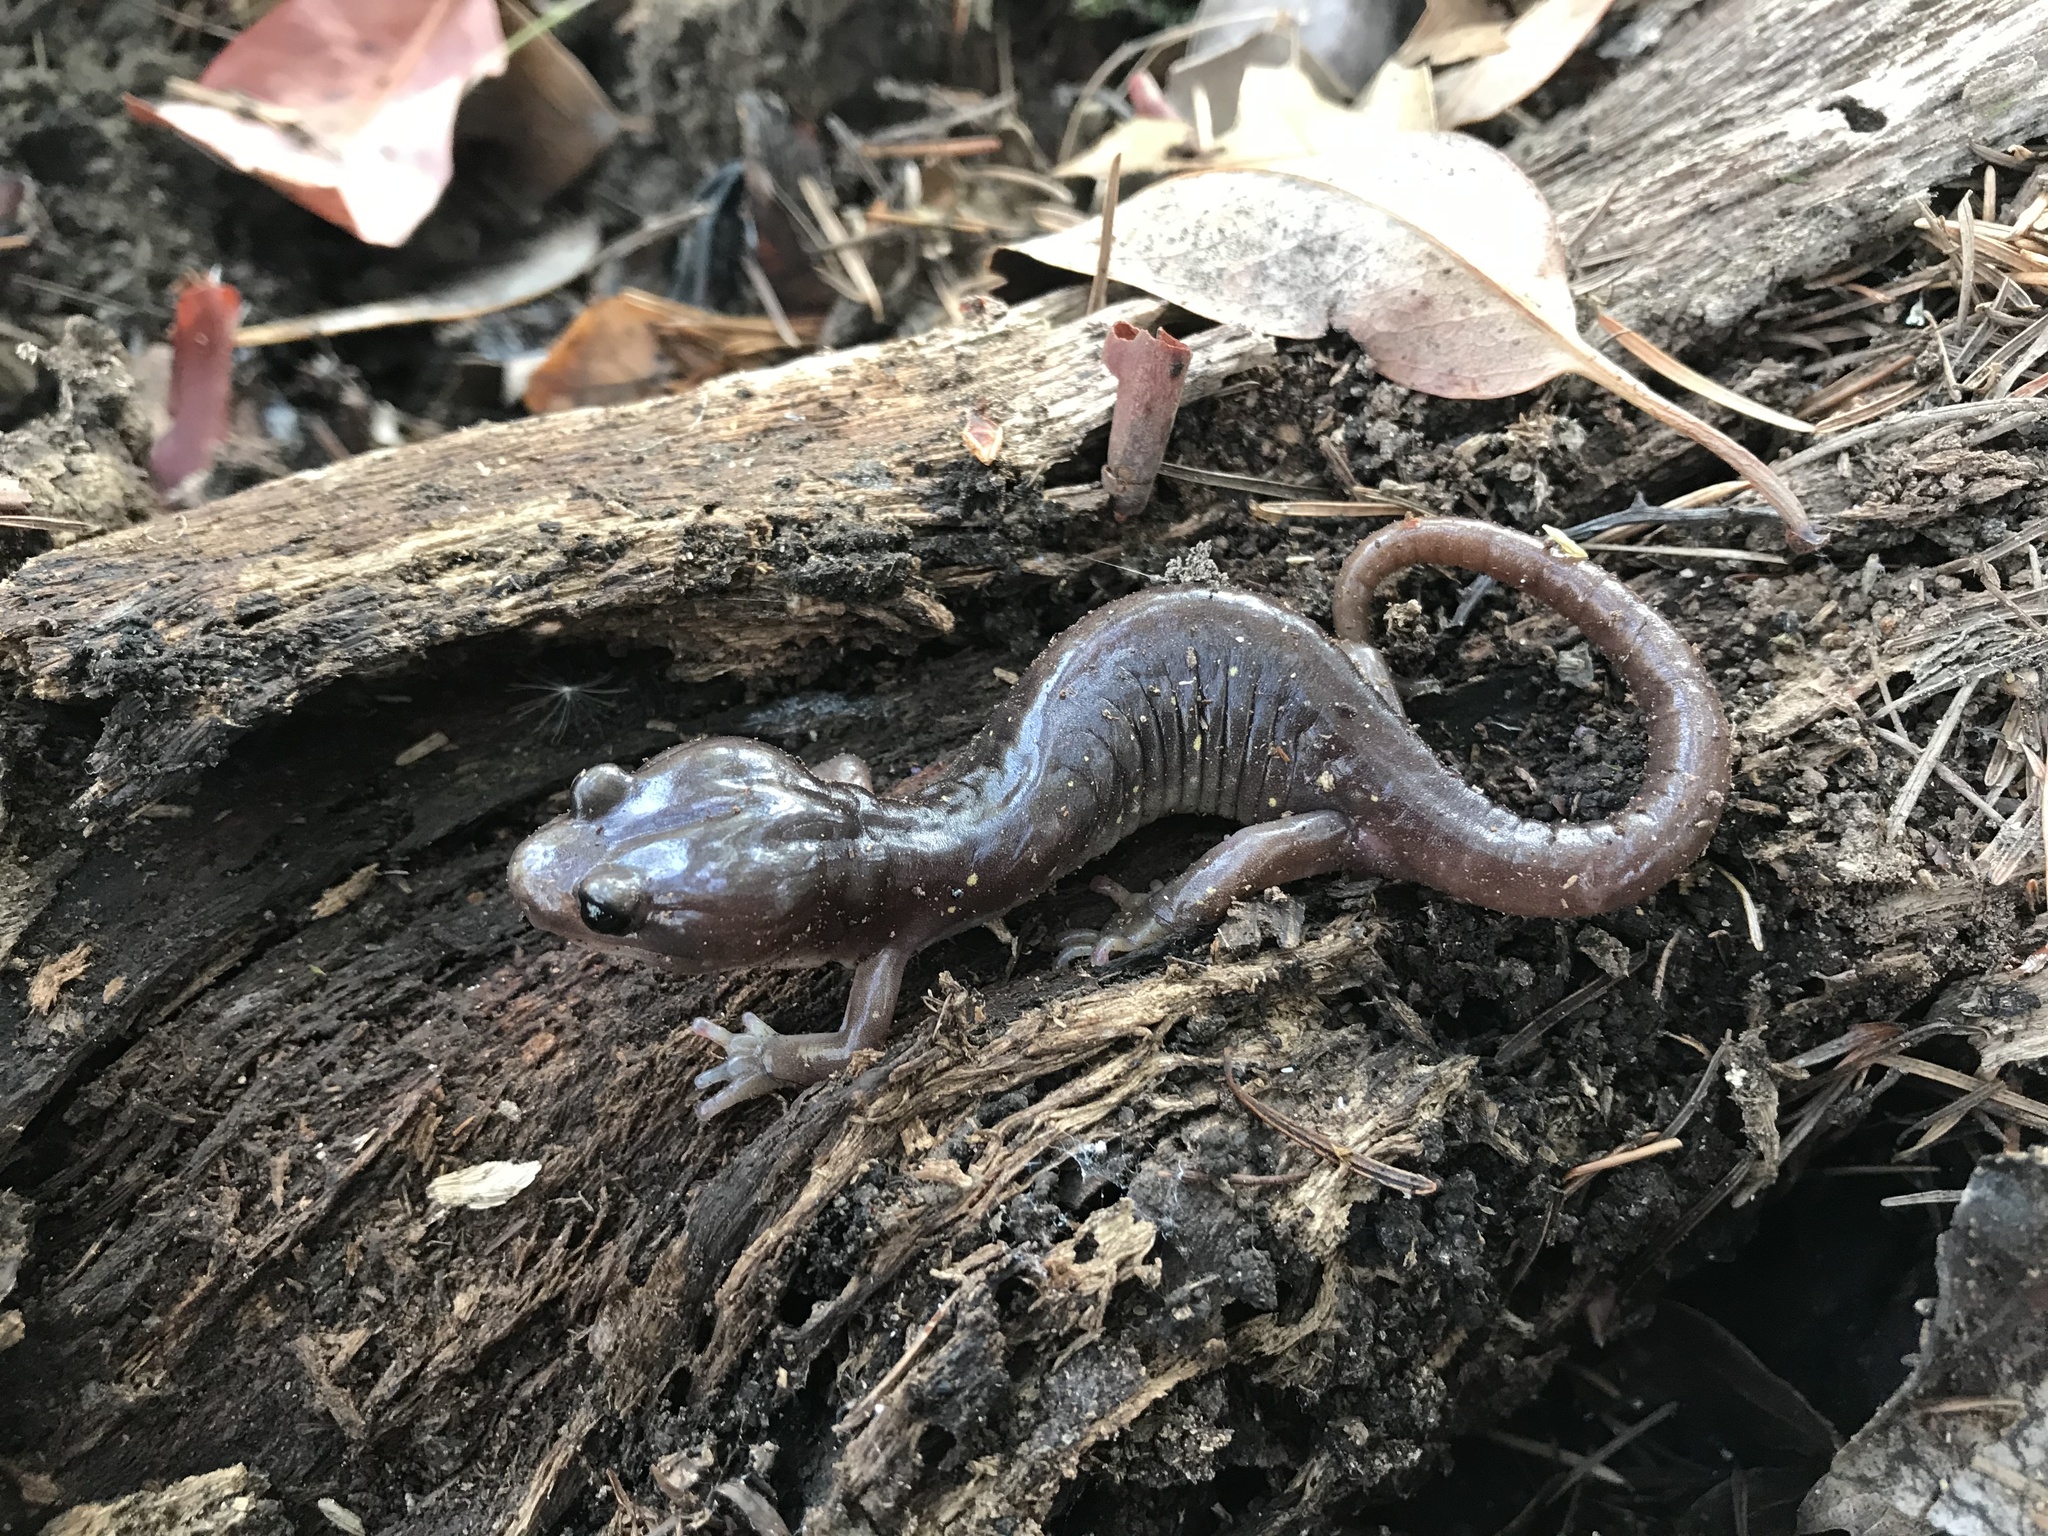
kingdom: Animalia
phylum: Chordata
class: Amphibia
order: Caudata
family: Plethodontidae
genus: Aneides
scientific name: Aneides lugubris
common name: Arboreal salamander
